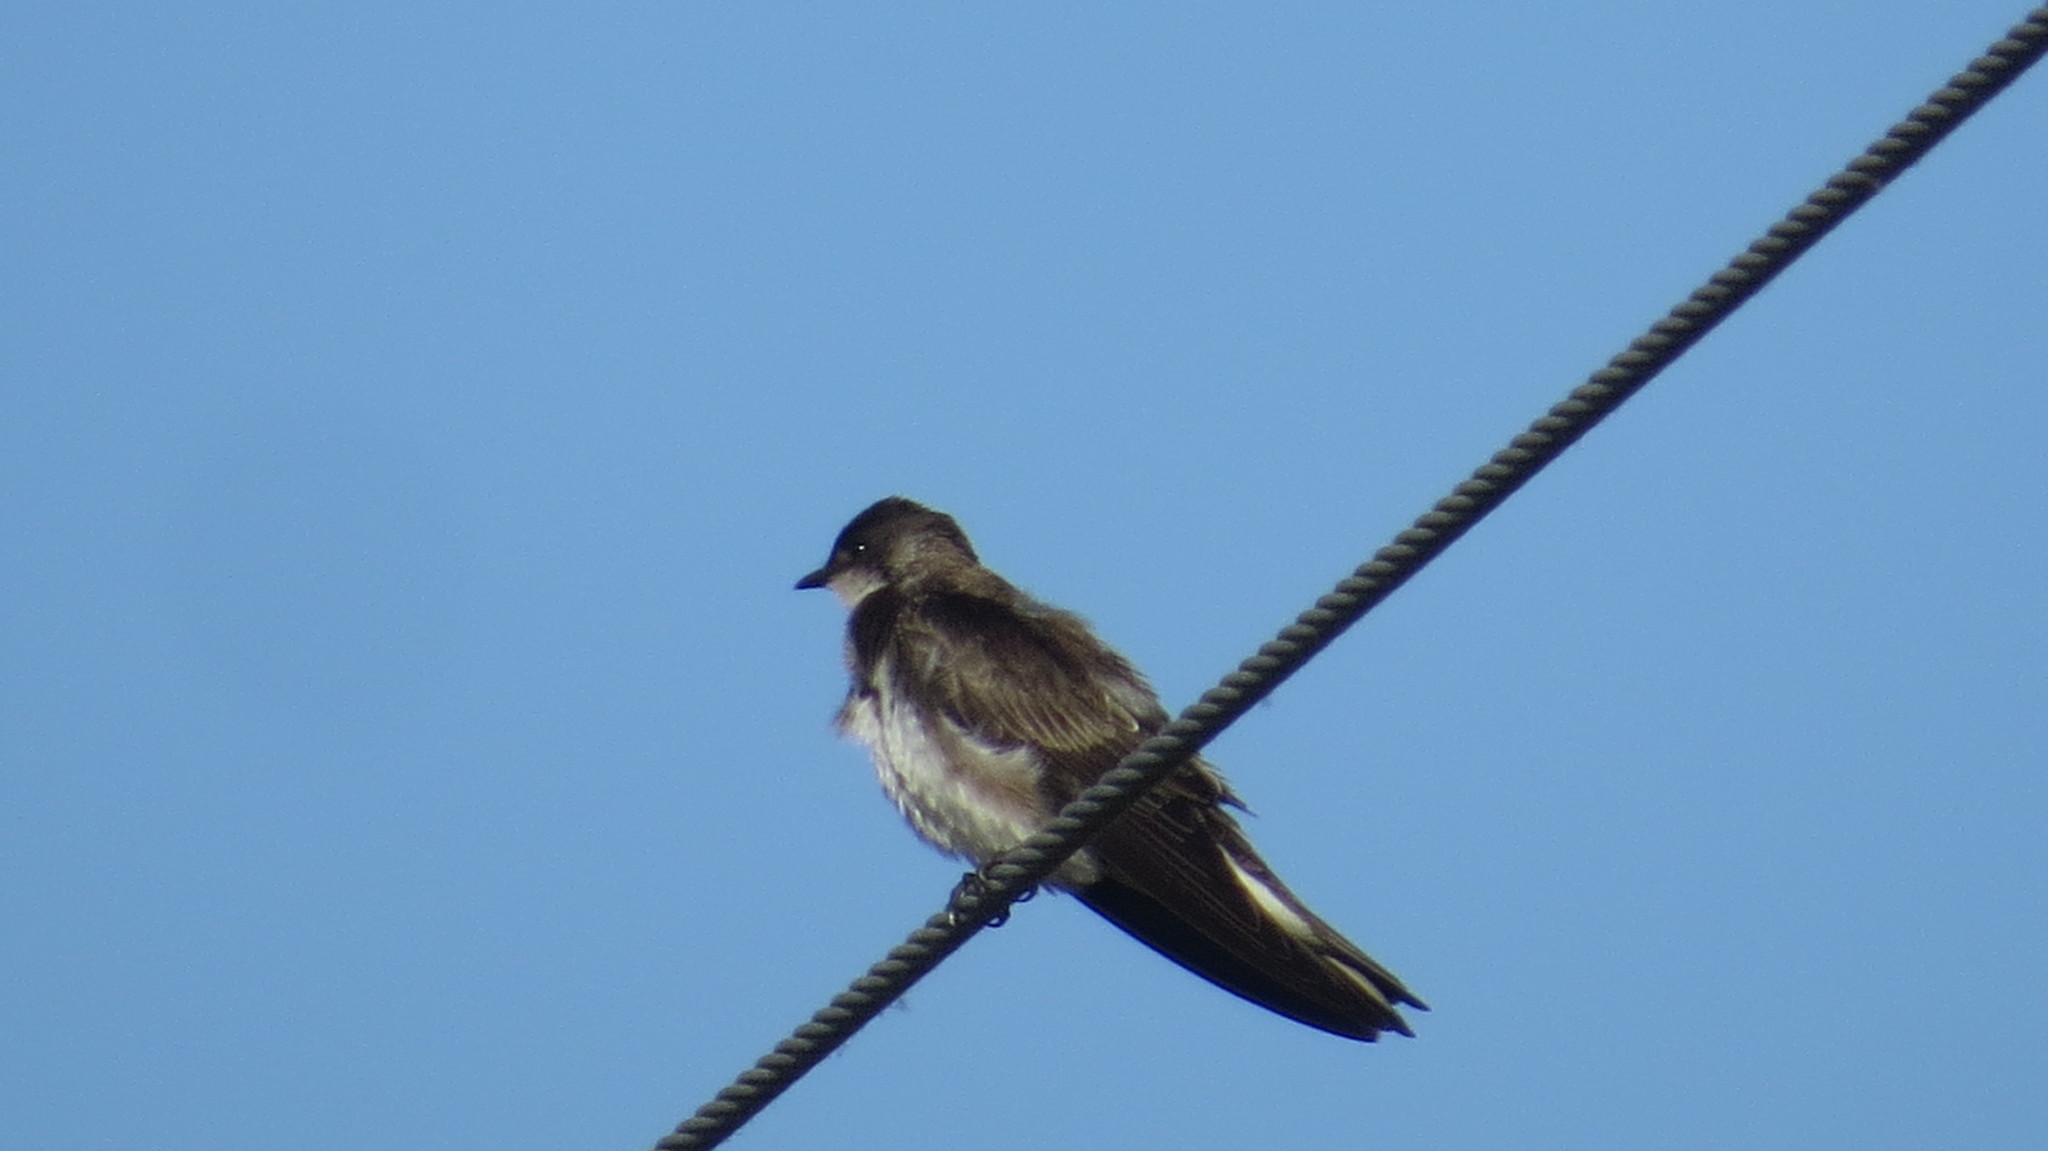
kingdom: Animalia
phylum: Chordata
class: Aves
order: Passeriformes
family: Hirundinidae
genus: Progne
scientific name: Progne tapera
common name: Brown-chested martin
